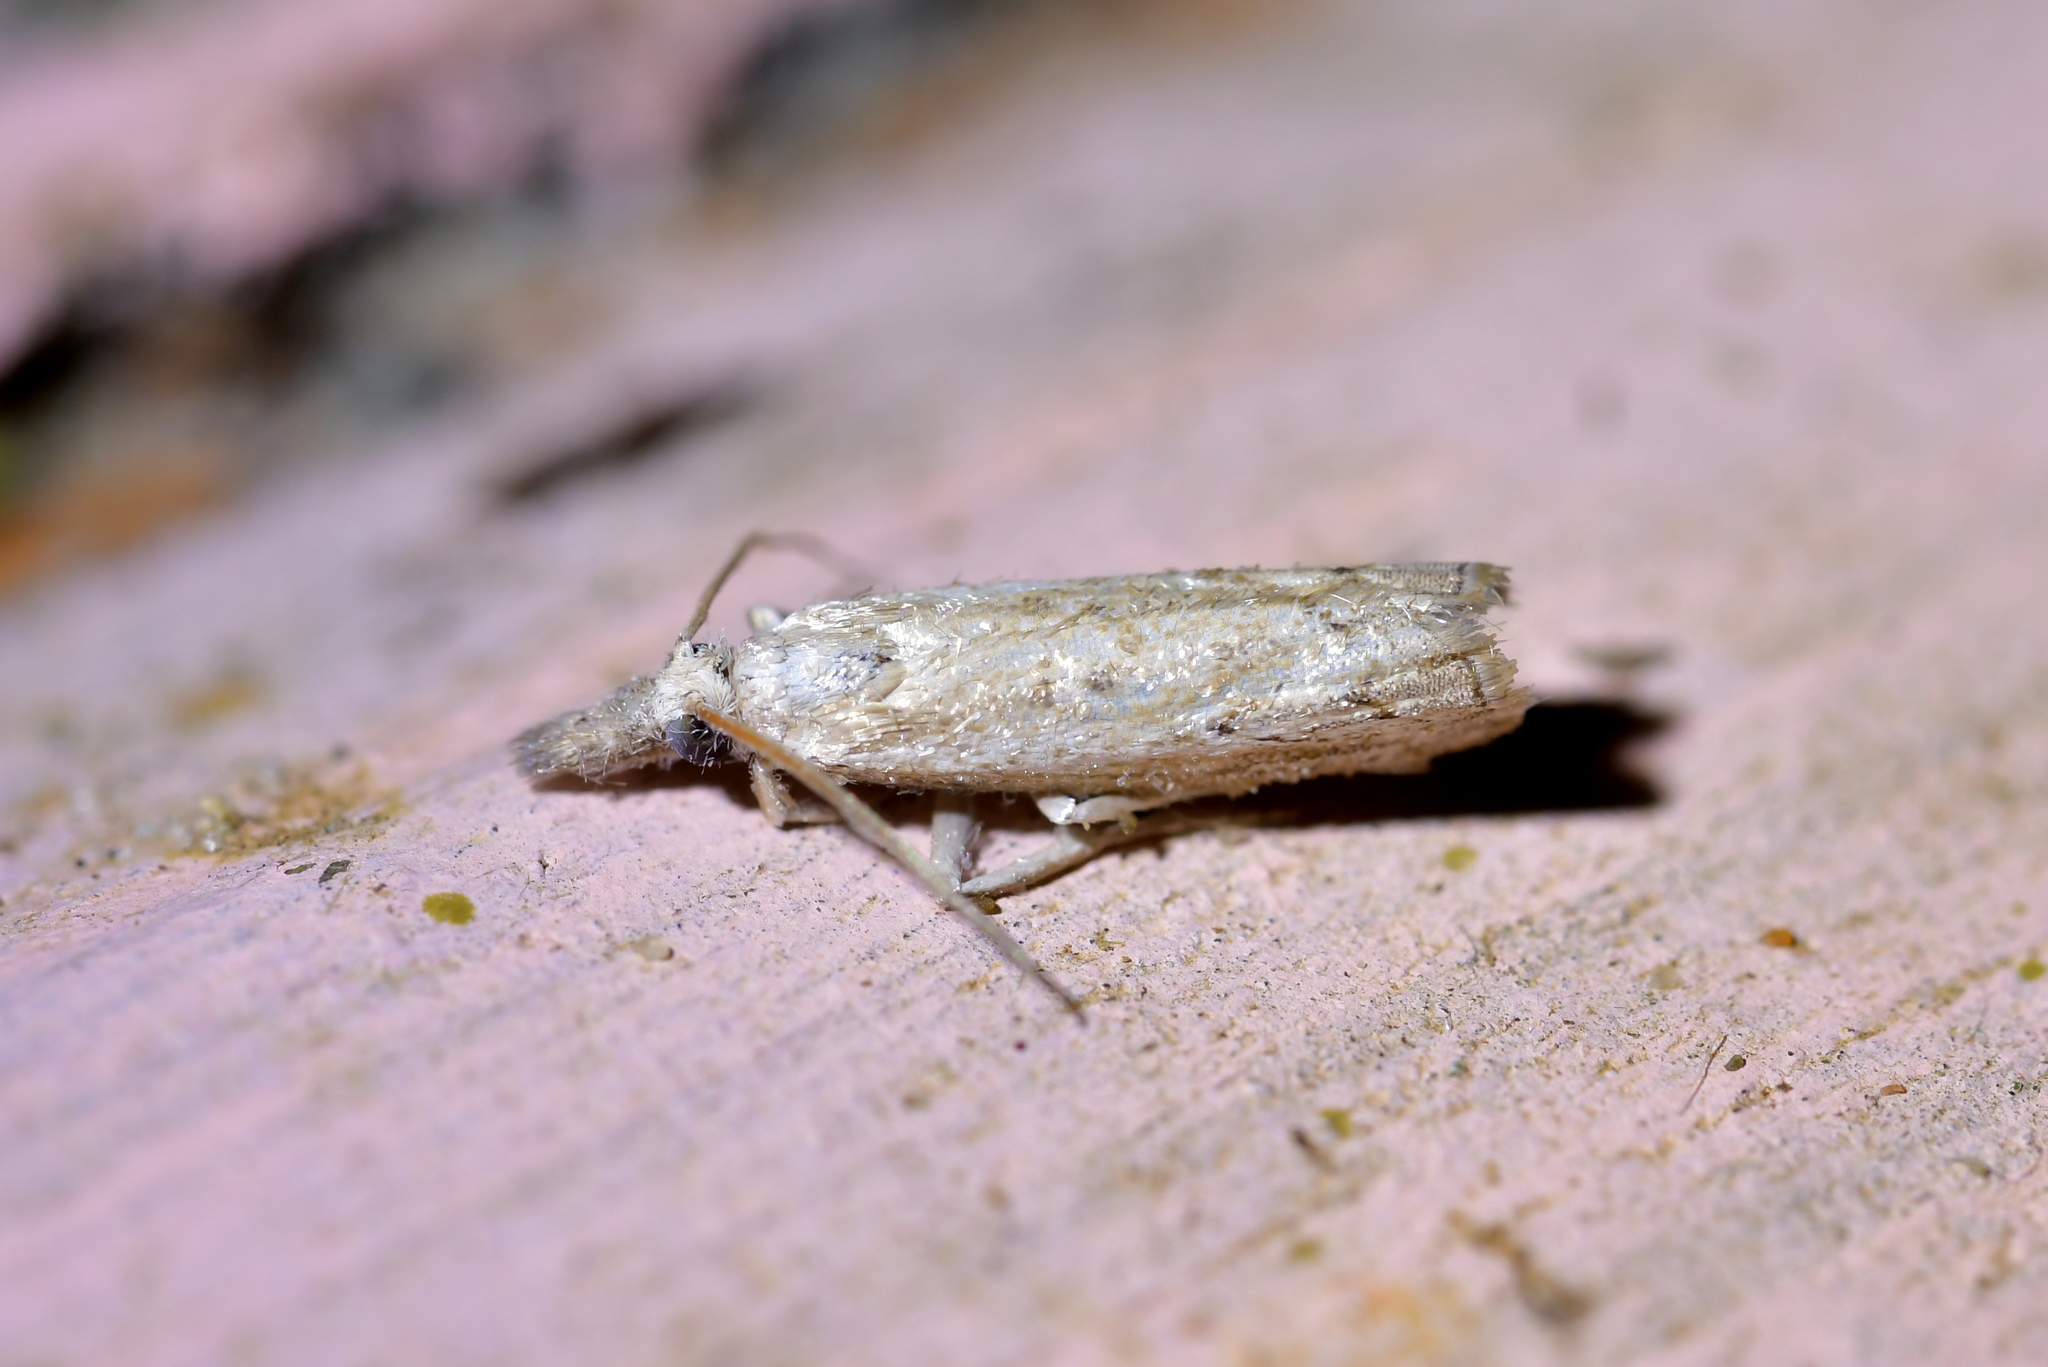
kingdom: Animalia
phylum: Arthropoda
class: Insecta
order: Lepidoptera
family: Crambidae
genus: Culladia
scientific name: Culladia cuneiferellus
